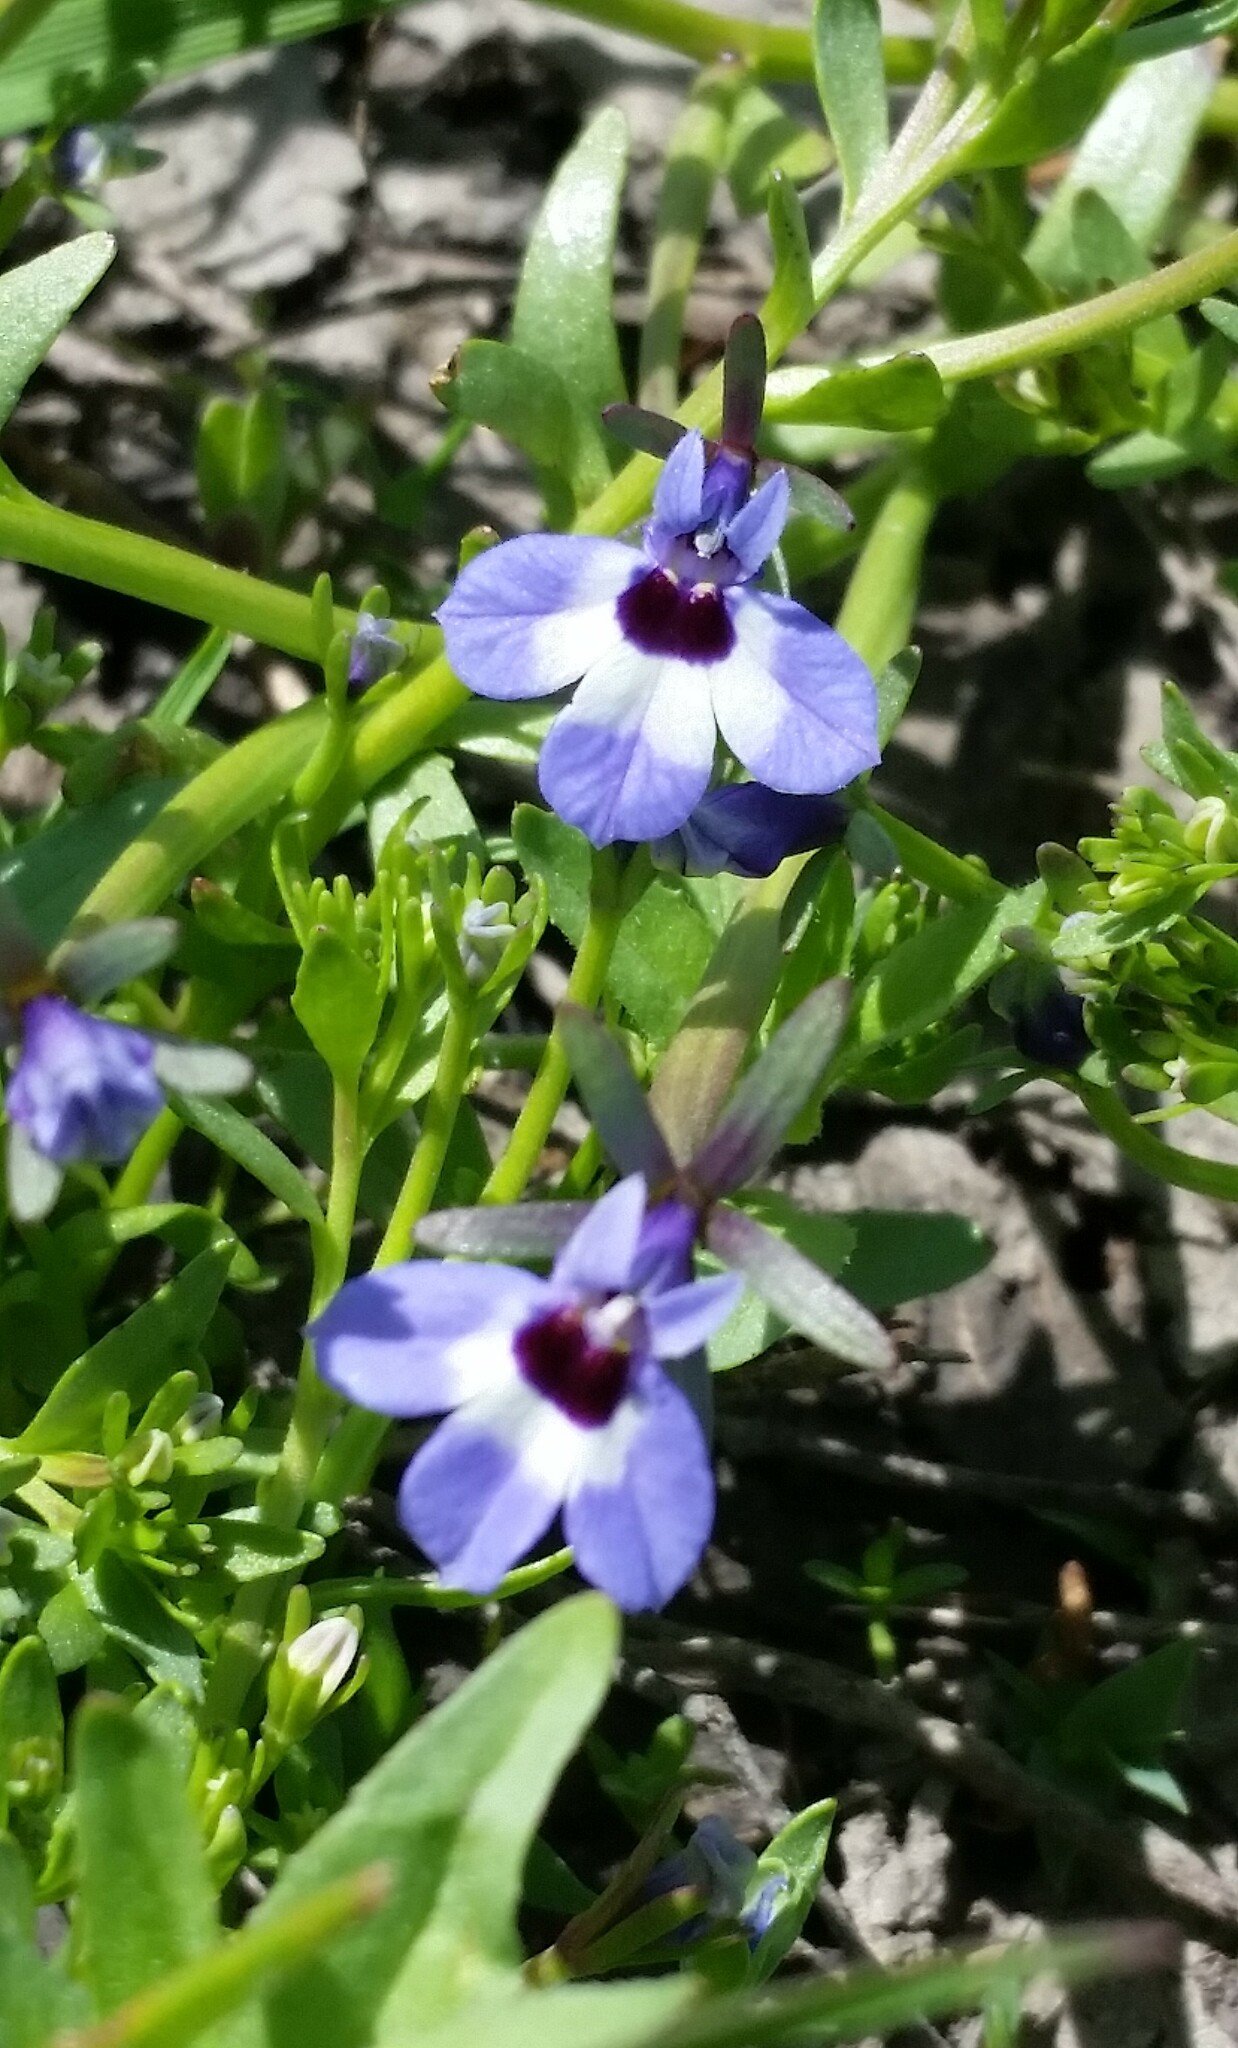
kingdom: Plantae
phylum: Tracheophyta
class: Magnoliopsida
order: Asterales
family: Campanulaceae
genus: Downingia
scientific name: Downingia concolor
